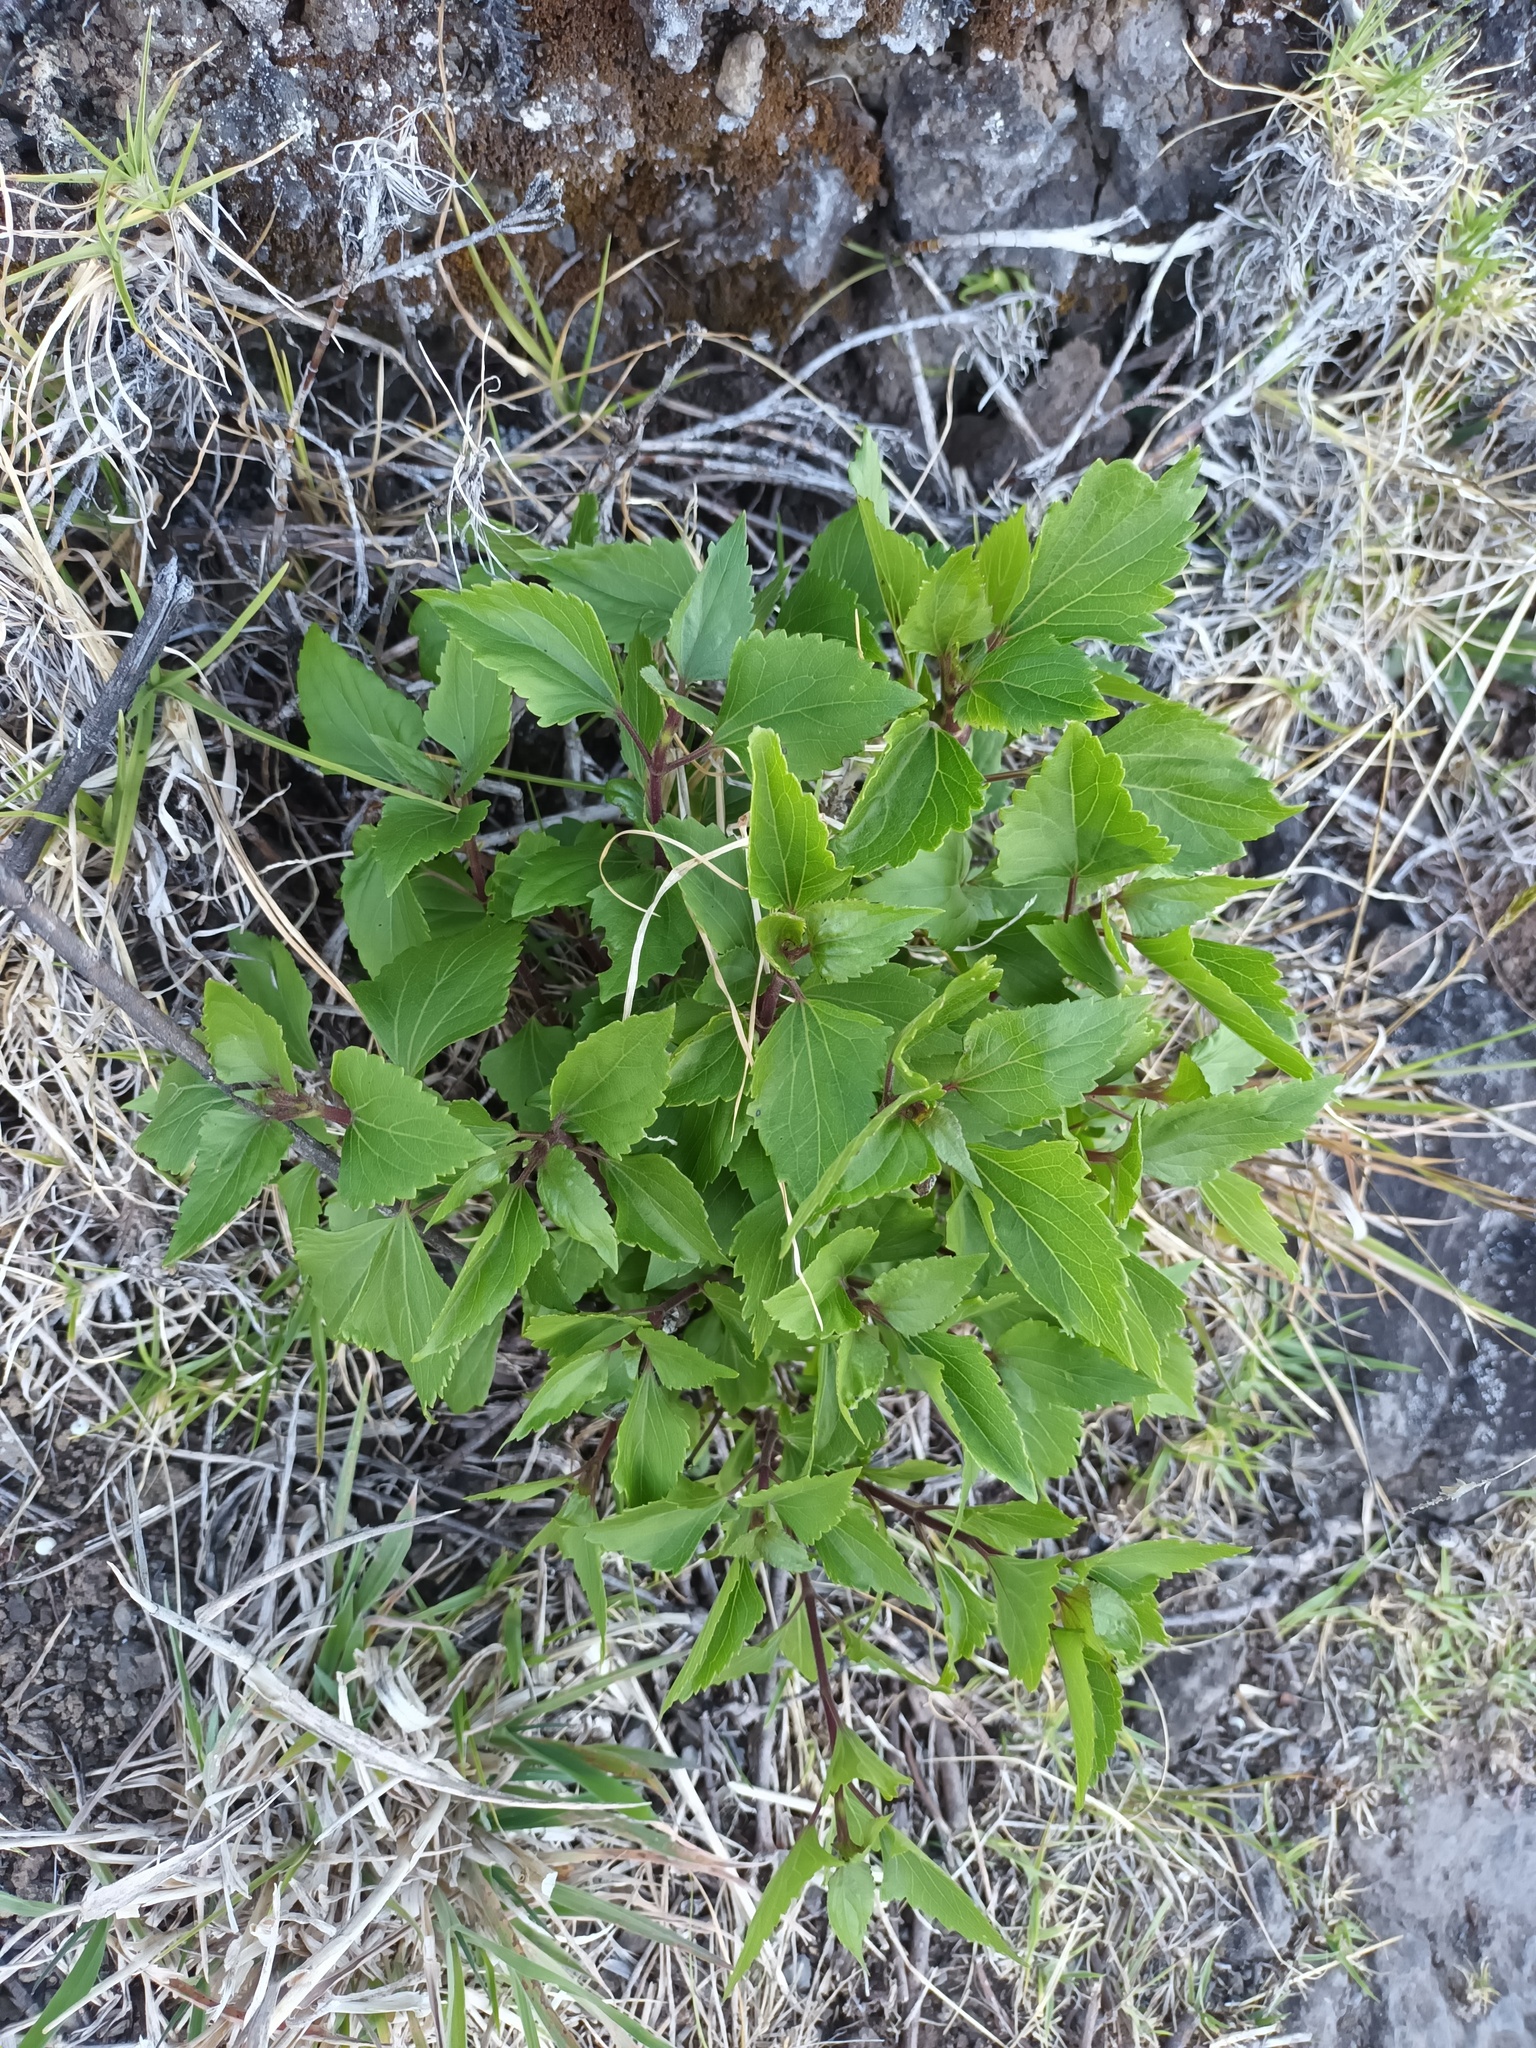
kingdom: Plantae
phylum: Tracheophyta
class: Magnoliopsida
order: Asterales
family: Asteraceae
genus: Ageratina
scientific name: Ageratina adenophora
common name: Sticky snakeroot
